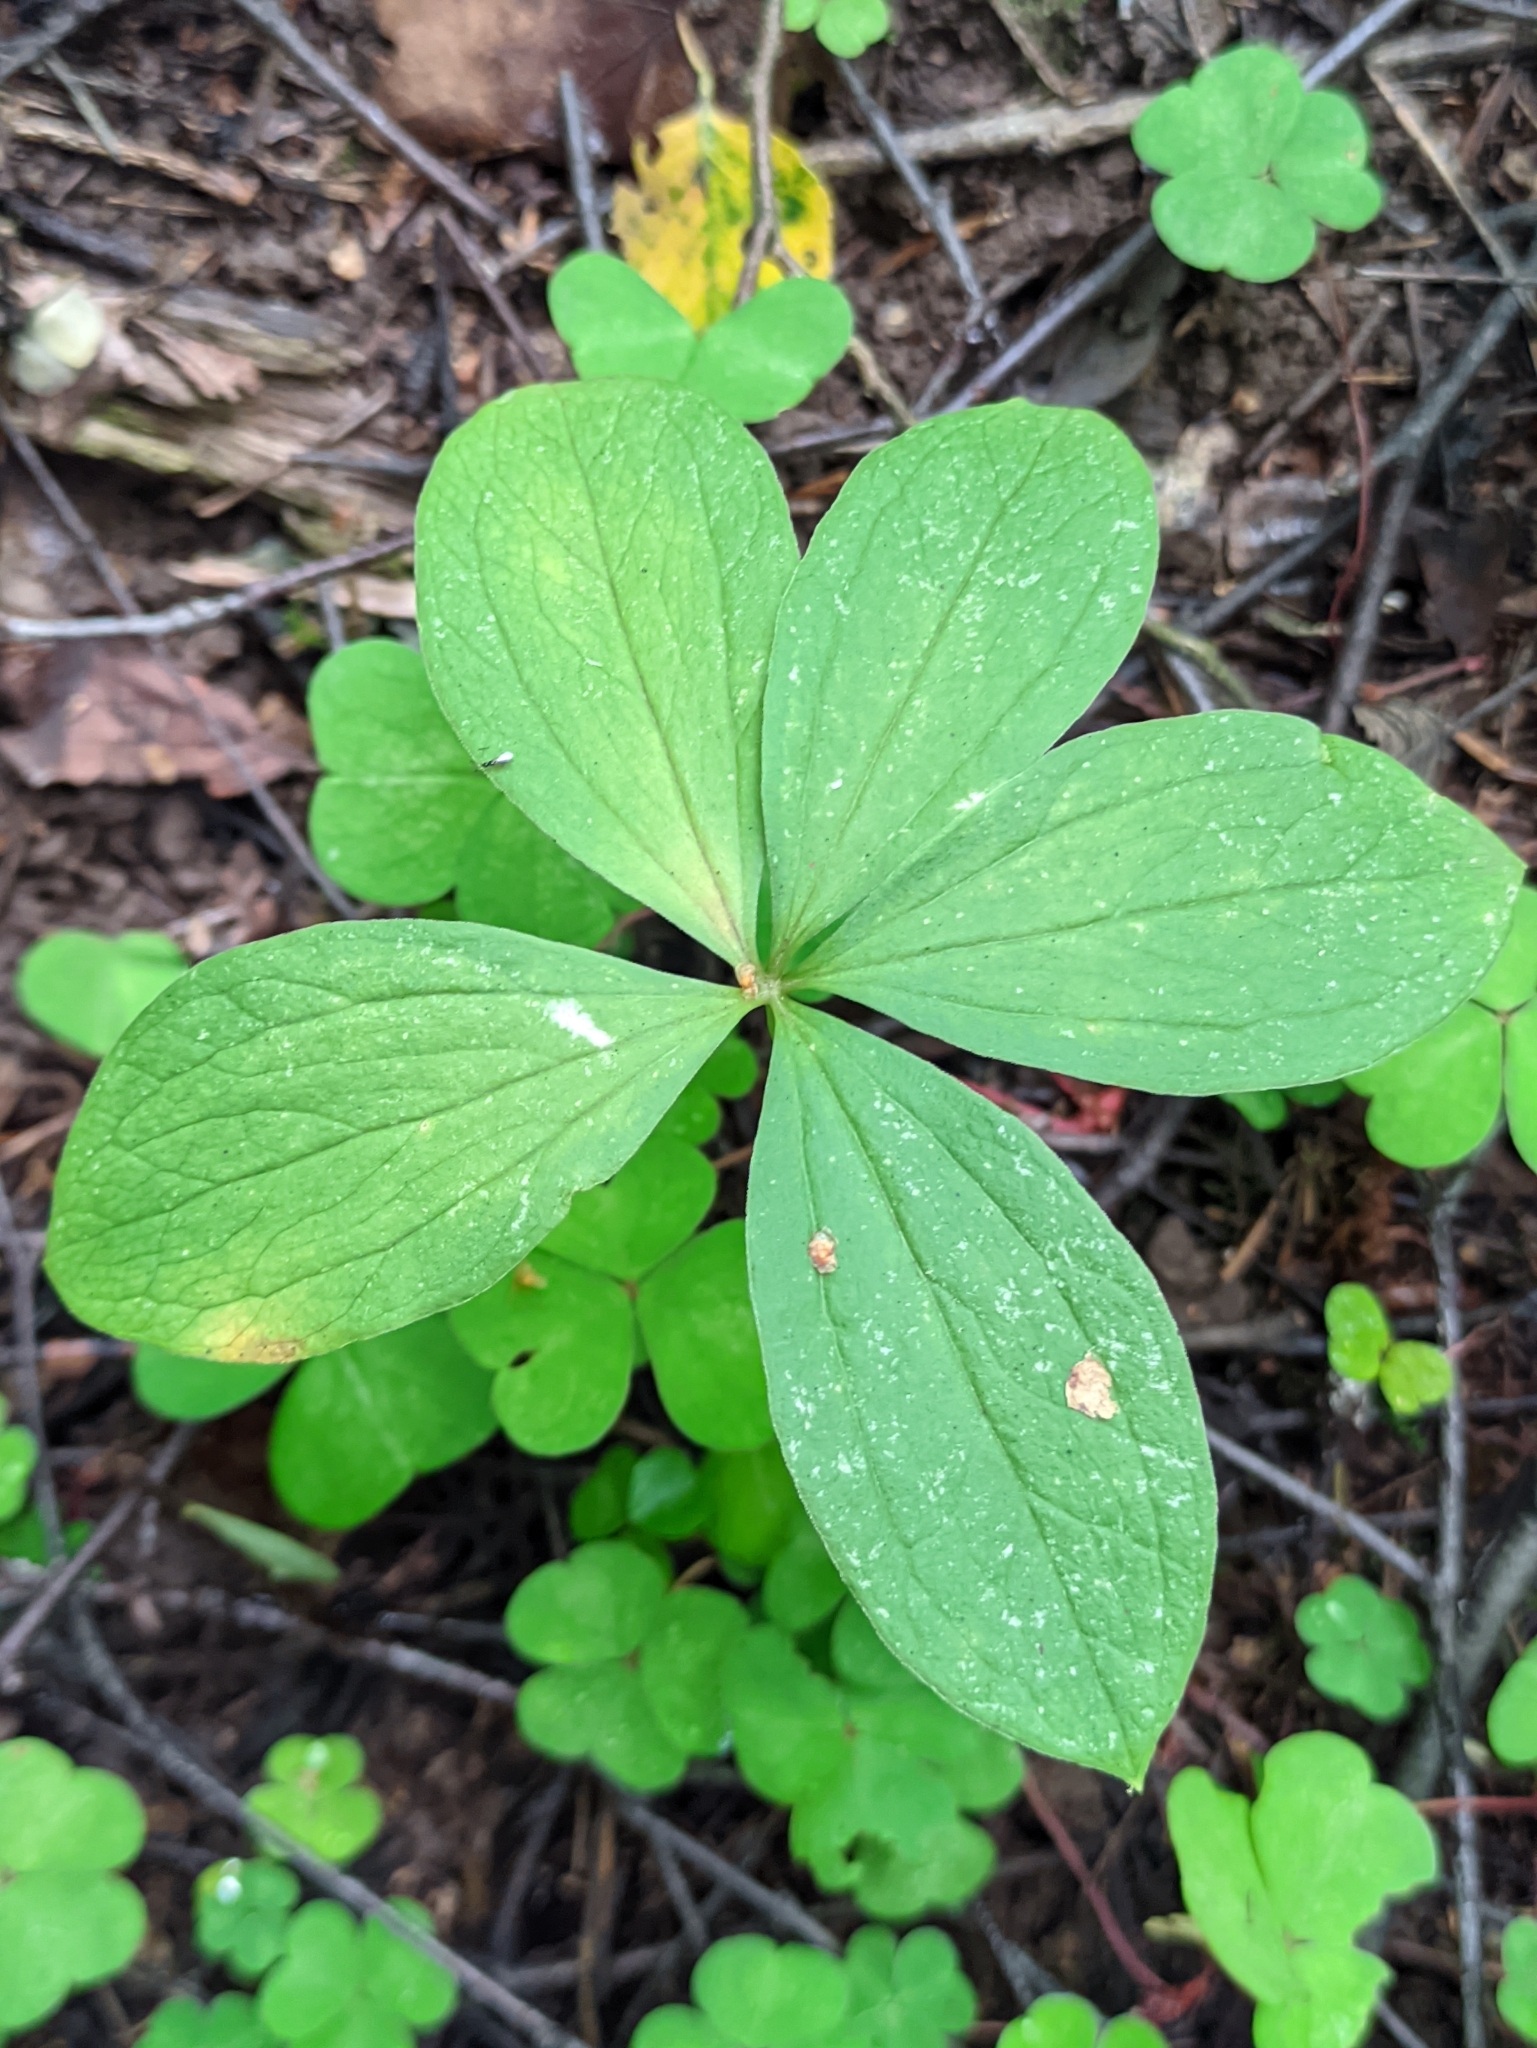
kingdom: Plantae
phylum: Tracheophyta
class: Liliopsida
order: Liliales
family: Melanthiaceae
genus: Paris
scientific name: Paris quadrifolia
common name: Herb-paris
